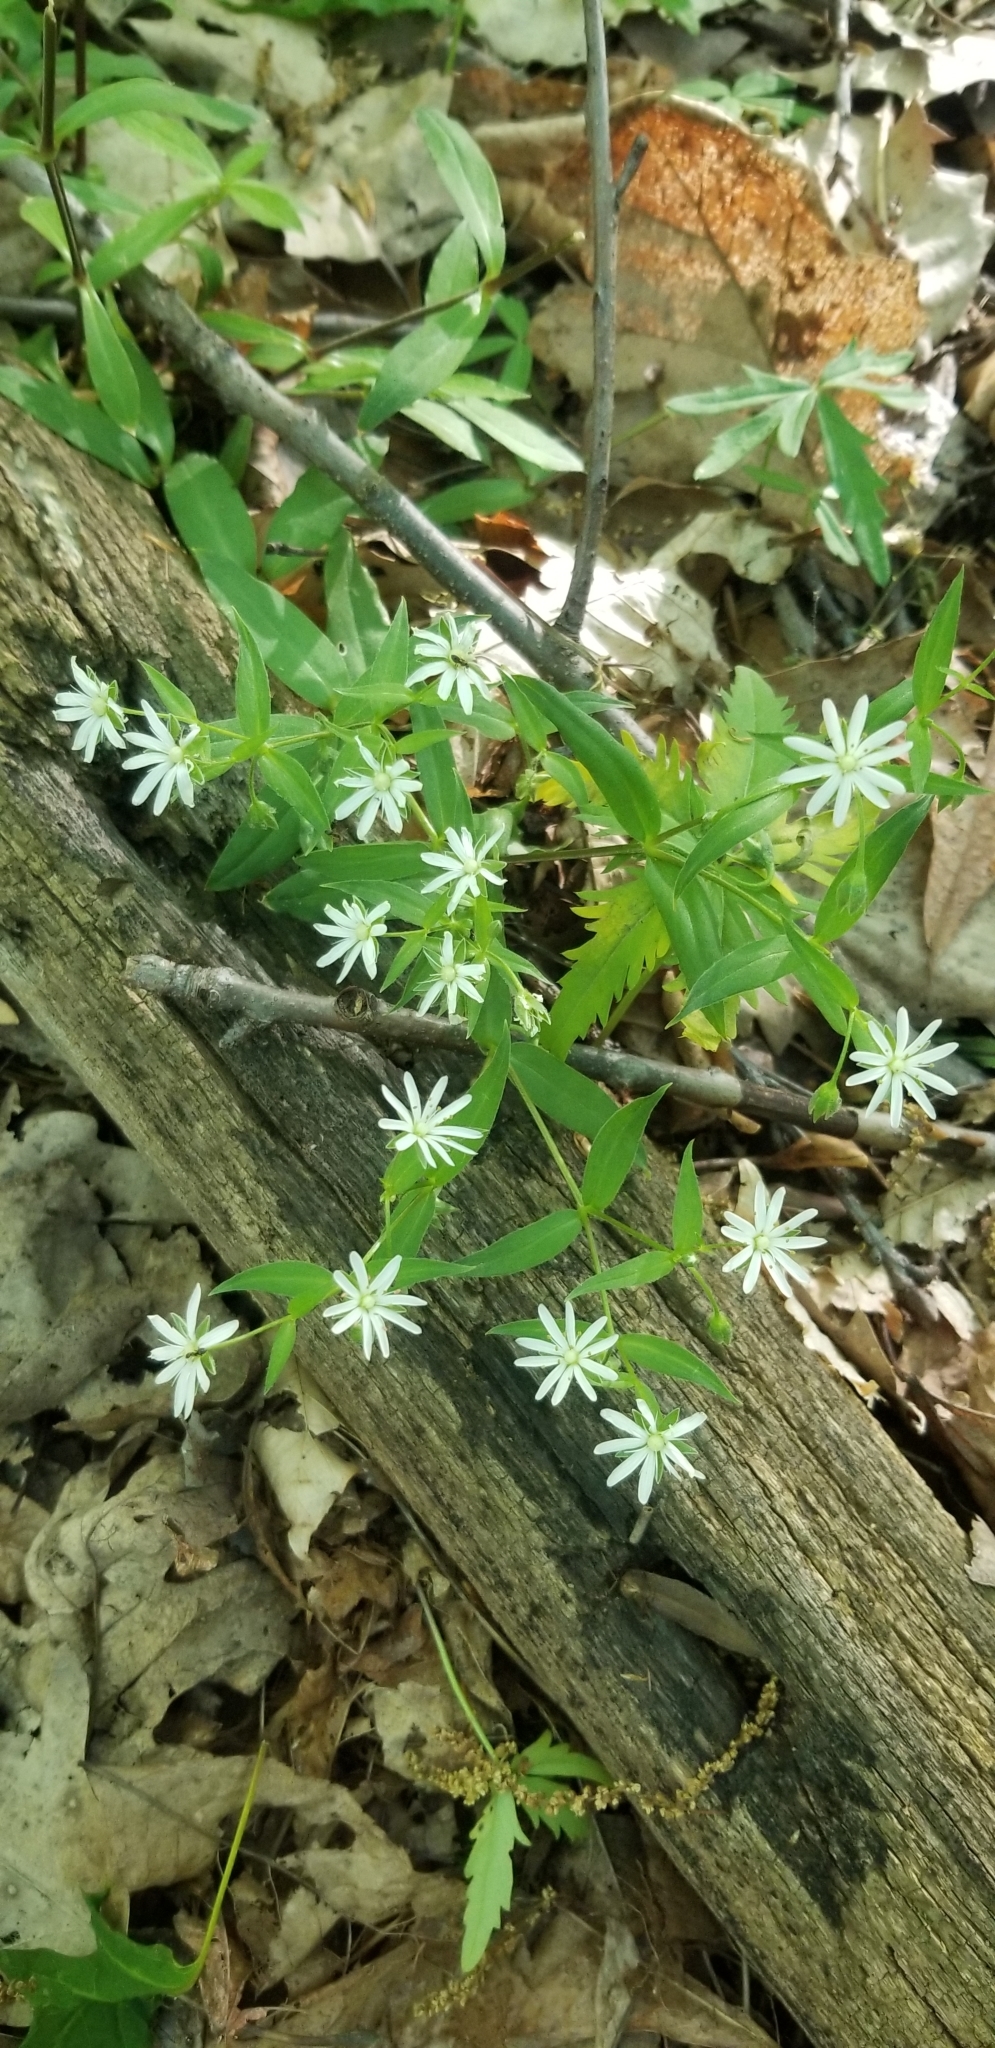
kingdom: Plantae
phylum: Tracheophyta
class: Magnoliopsida
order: Caryophyllales
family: Caryophyllaceae
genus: Stellaria
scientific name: Stellaria pubera
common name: Star chickweed
